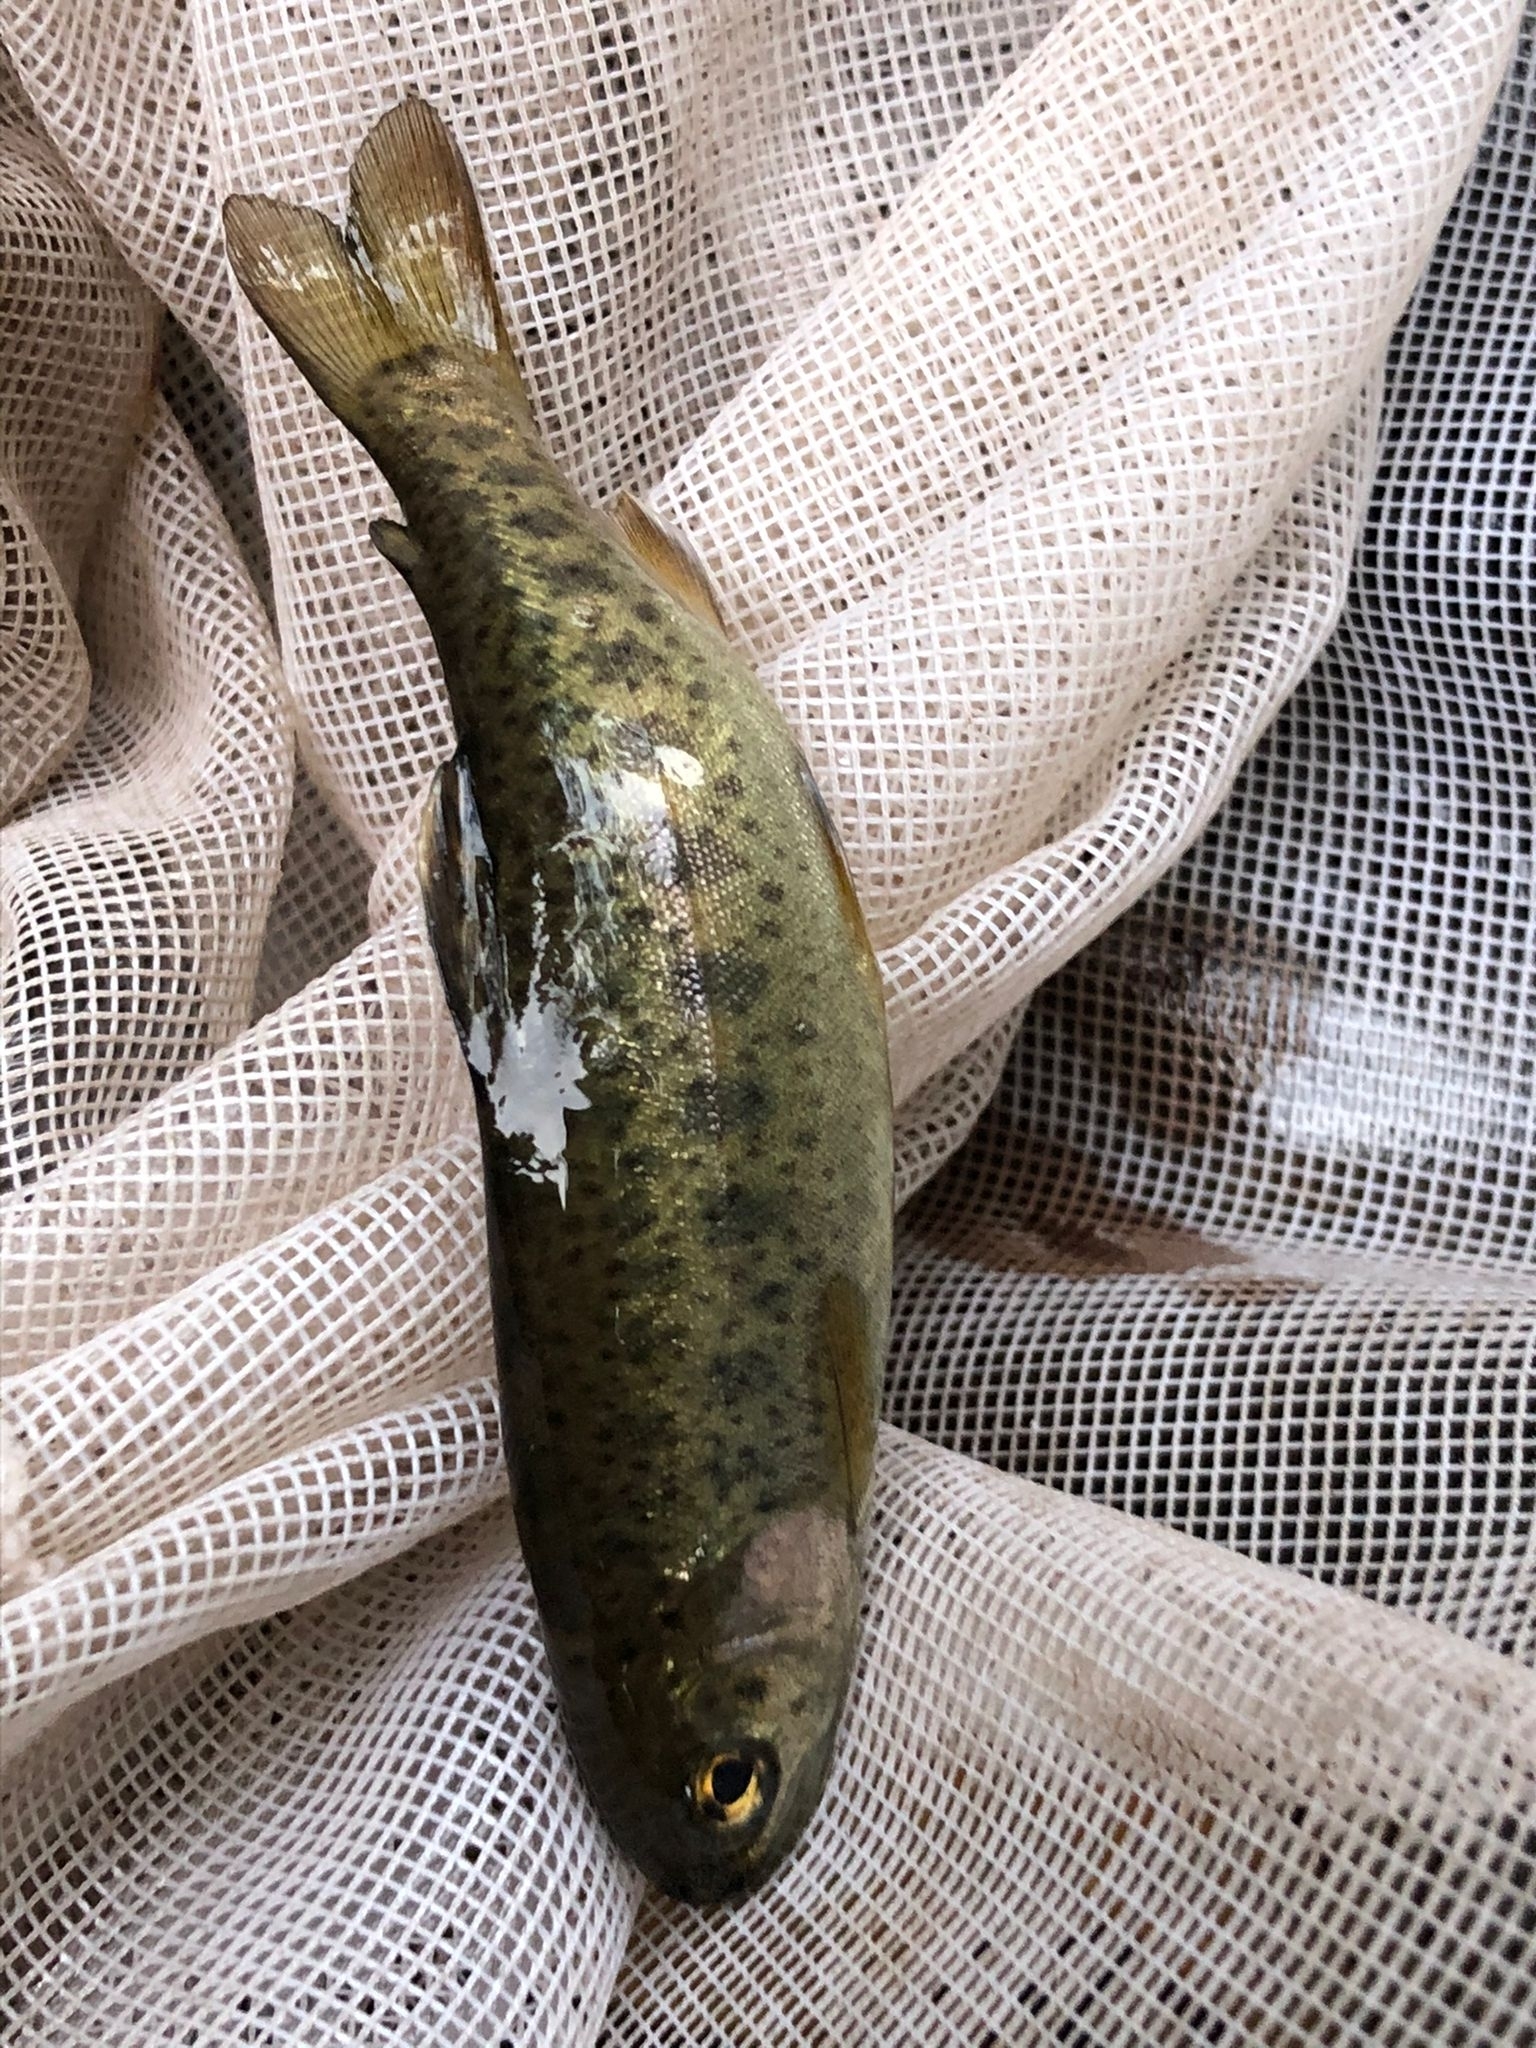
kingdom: Animalia
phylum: Chordata
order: Salmoniformes
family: Salmonidae
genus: Oncorhynchus
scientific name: Oncorhynchus mykiss
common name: Rainbow trout
